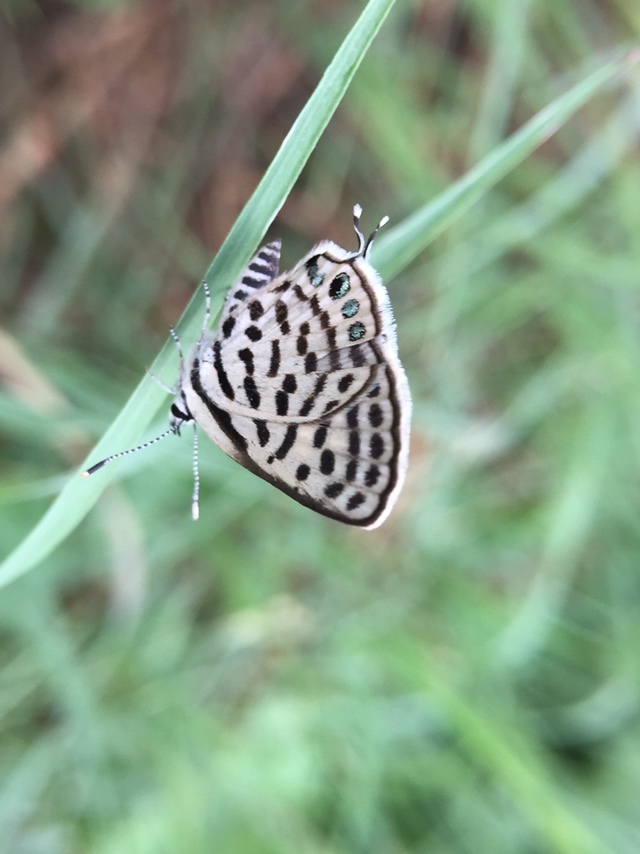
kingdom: Animalia
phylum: Arthropoda
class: Insecta
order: Lepidoptera
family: Lycaenidae
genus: Tarucus
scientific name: Tarucus
